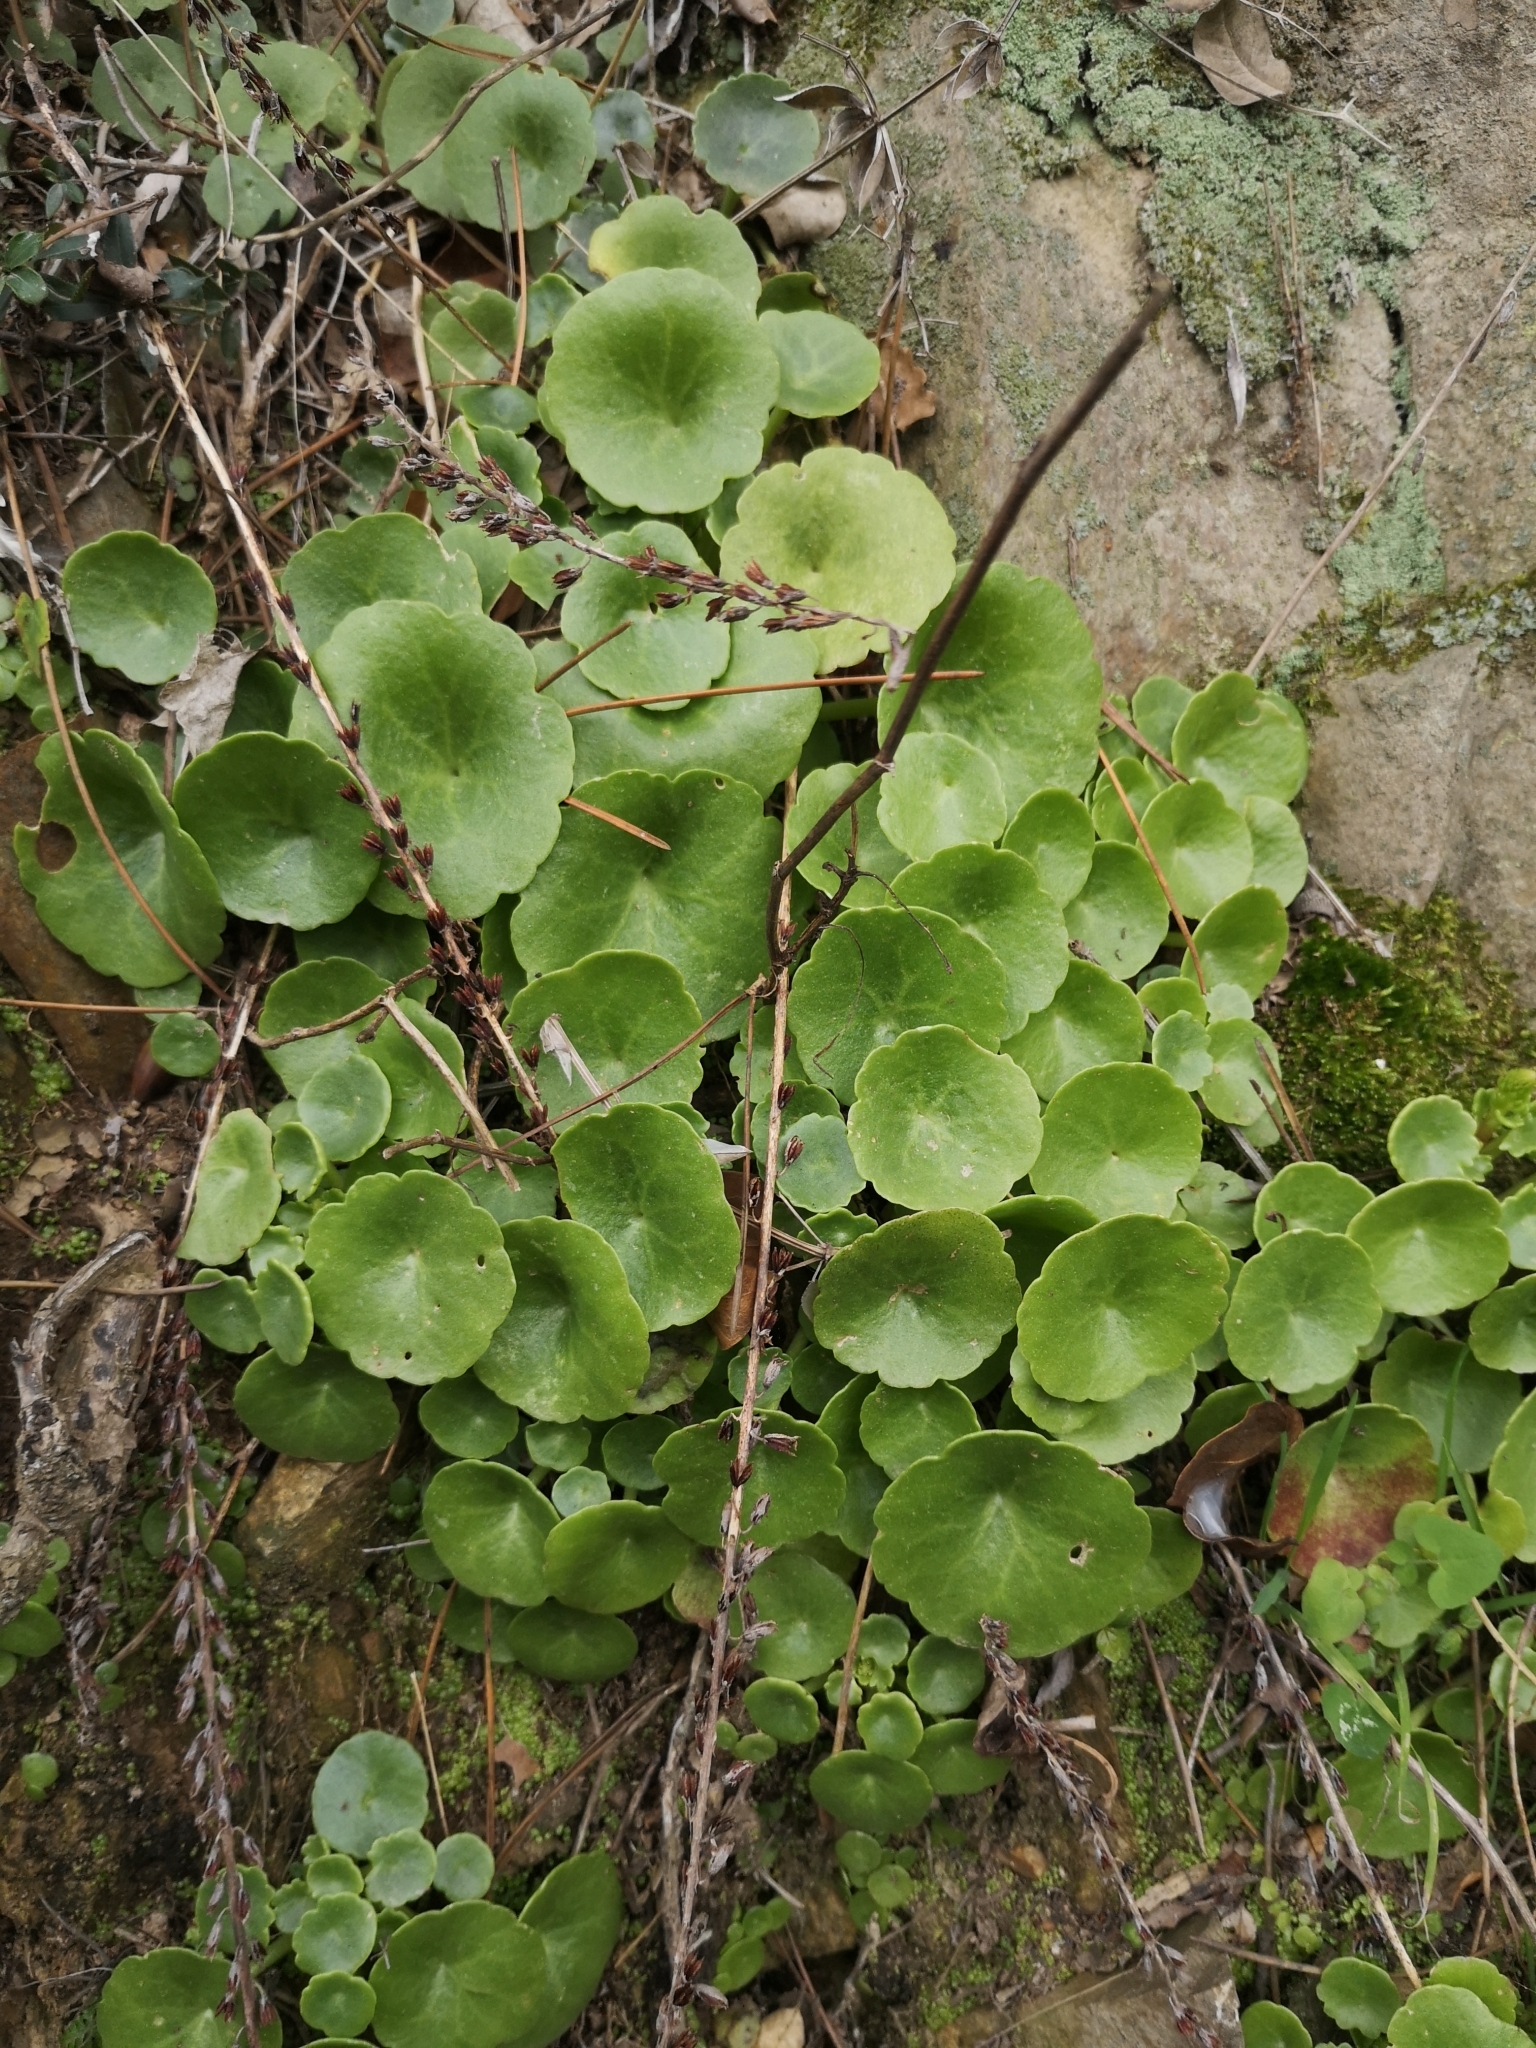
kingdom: Plantae
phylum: Tracheophyta
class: Magnoliopsida
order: Saxifragales
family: Crassulaceae
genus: Umbilicus
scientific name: Umbilicus rupestris
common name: Navelwort
